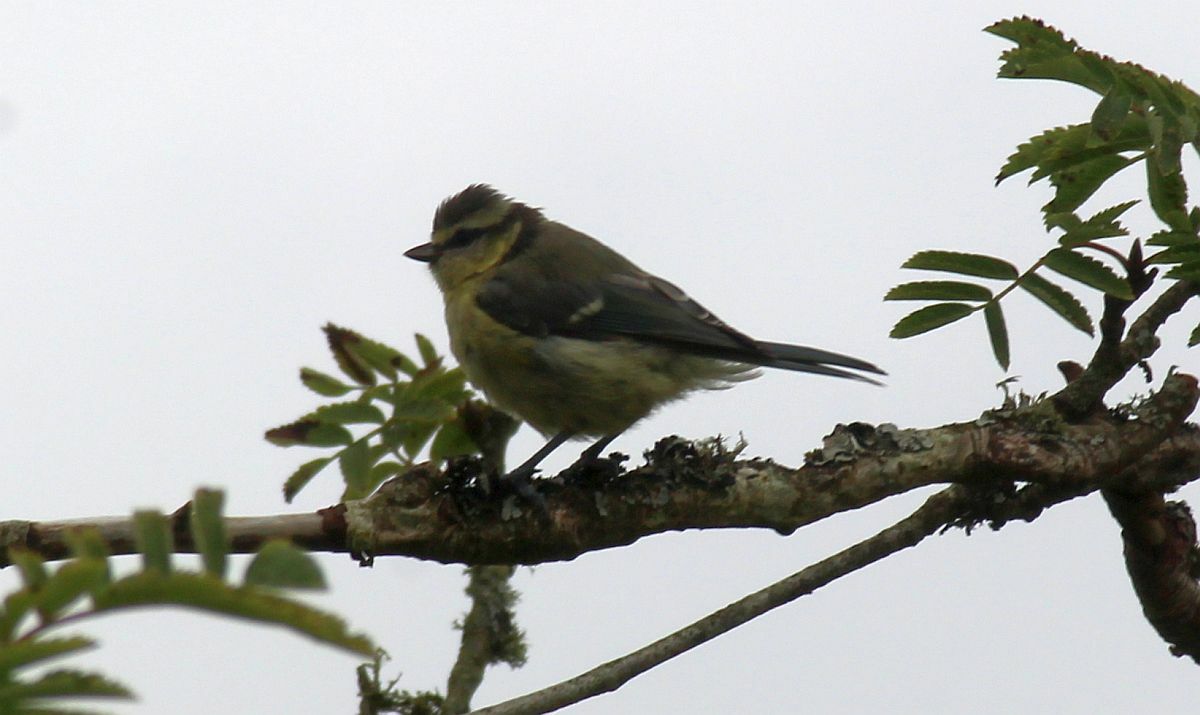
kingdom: Animalia
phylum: Chordata
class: Aves
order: Passeriformes
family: Paridae
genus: Cyanistes
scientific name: Cyanistes caeruleus
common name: Eurasian blue tit
